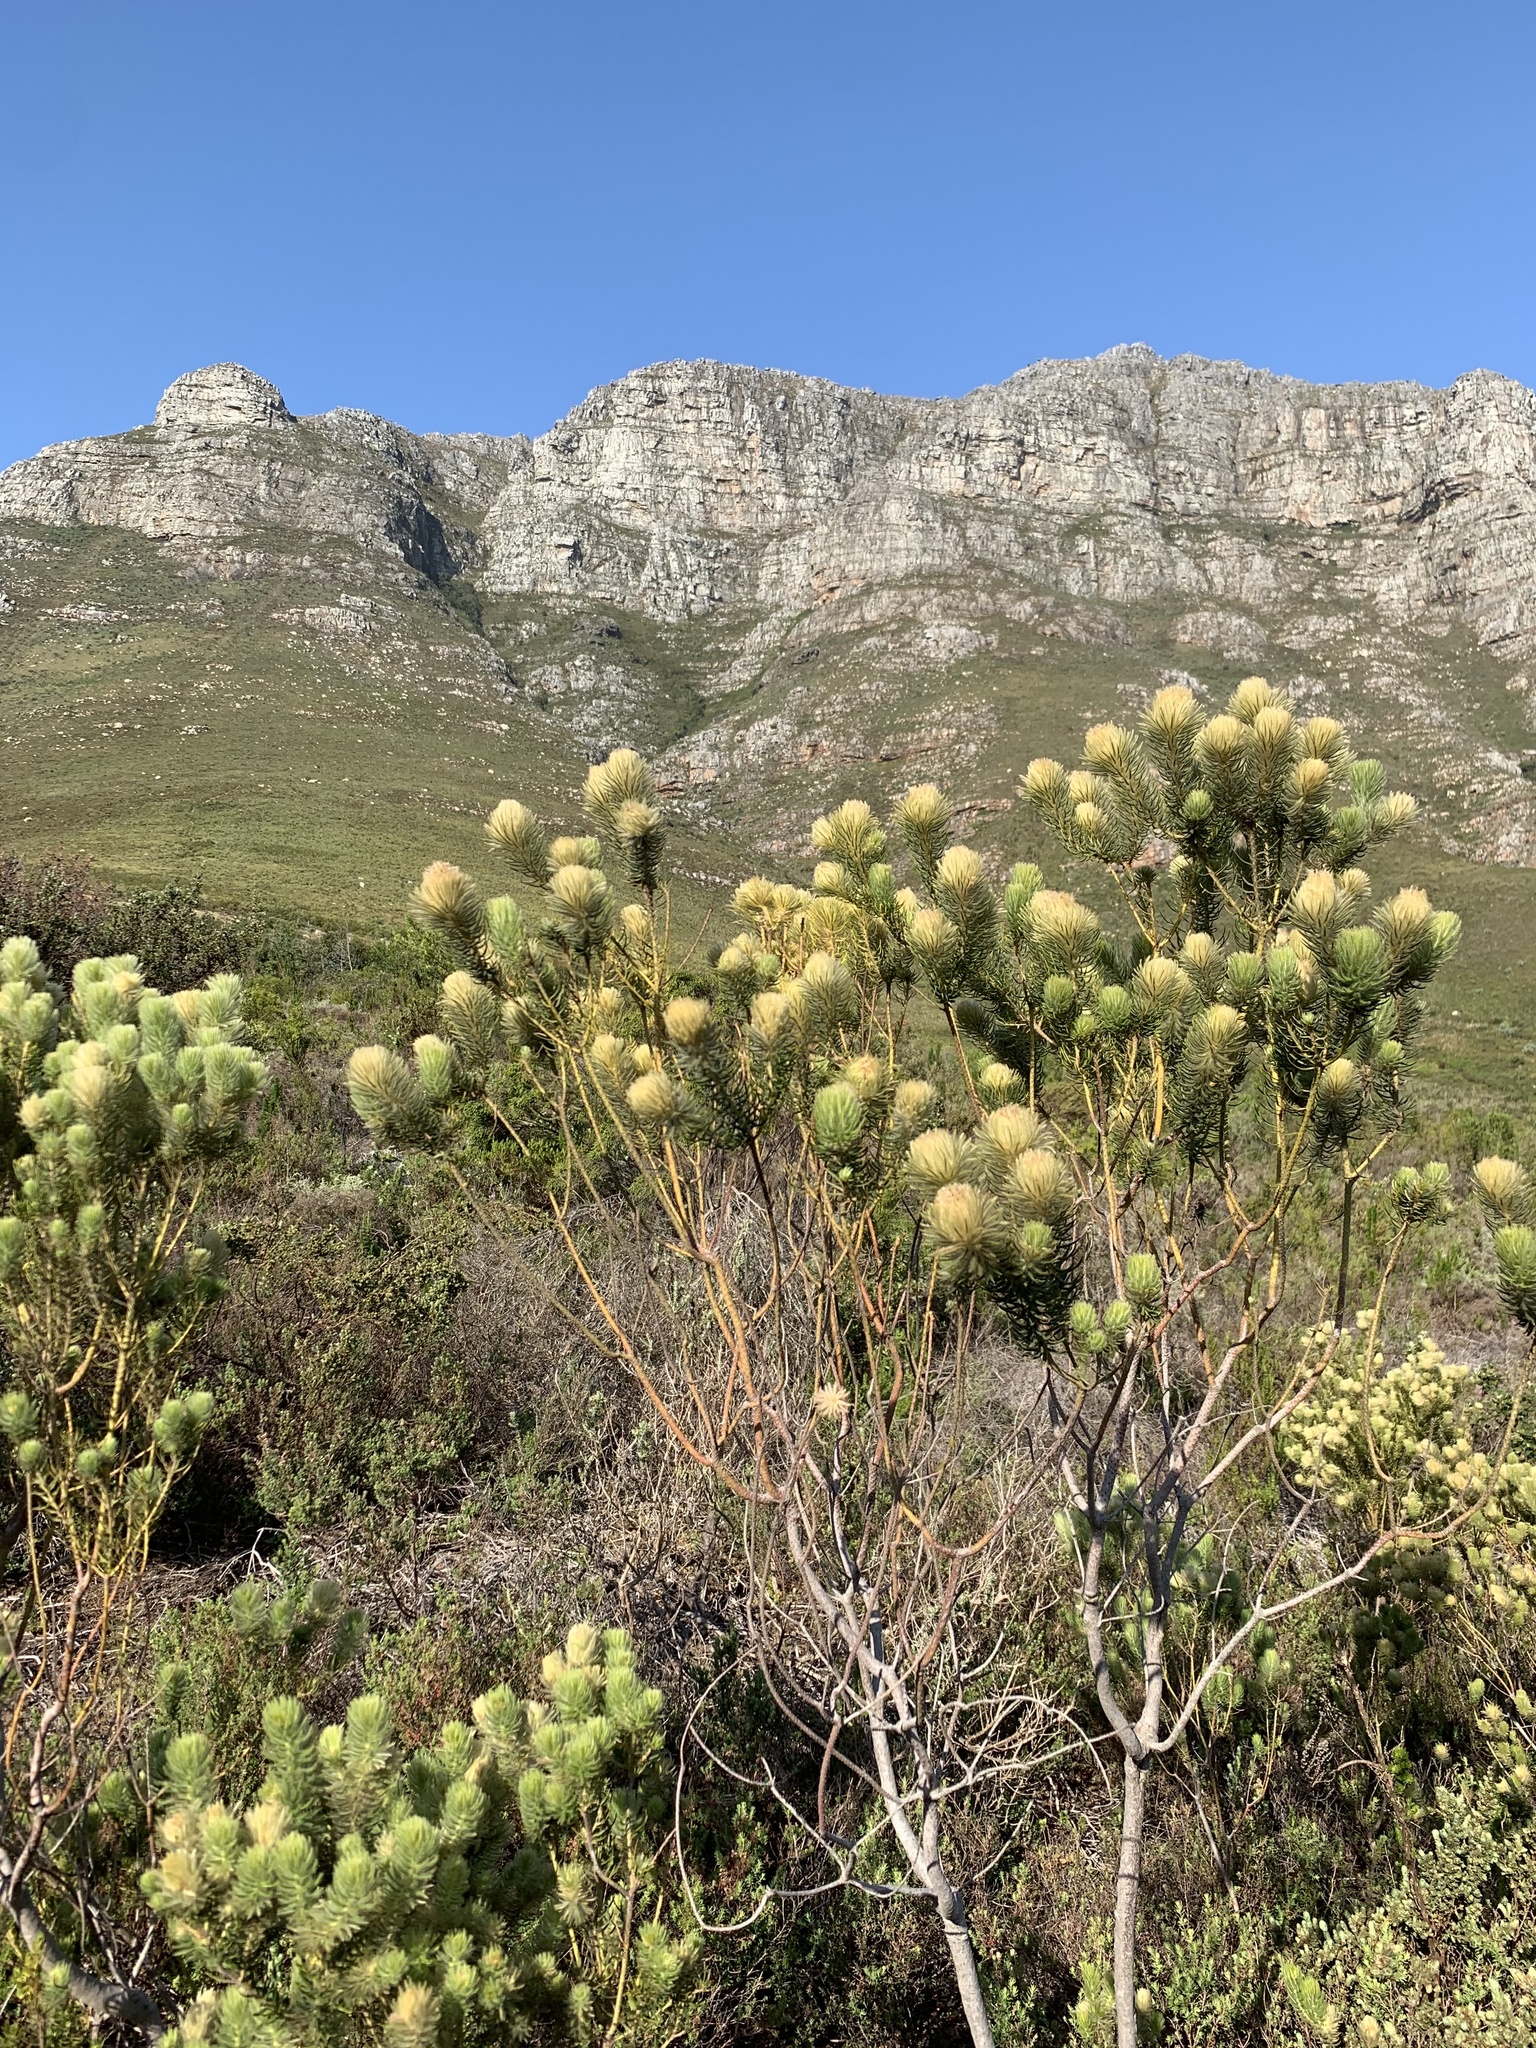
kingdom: Plantae
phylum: Tracheophyta
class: Magnoliopsida
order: Rosales
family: Rhamnaceae
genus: Phylica
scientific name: Phylica pubescens
